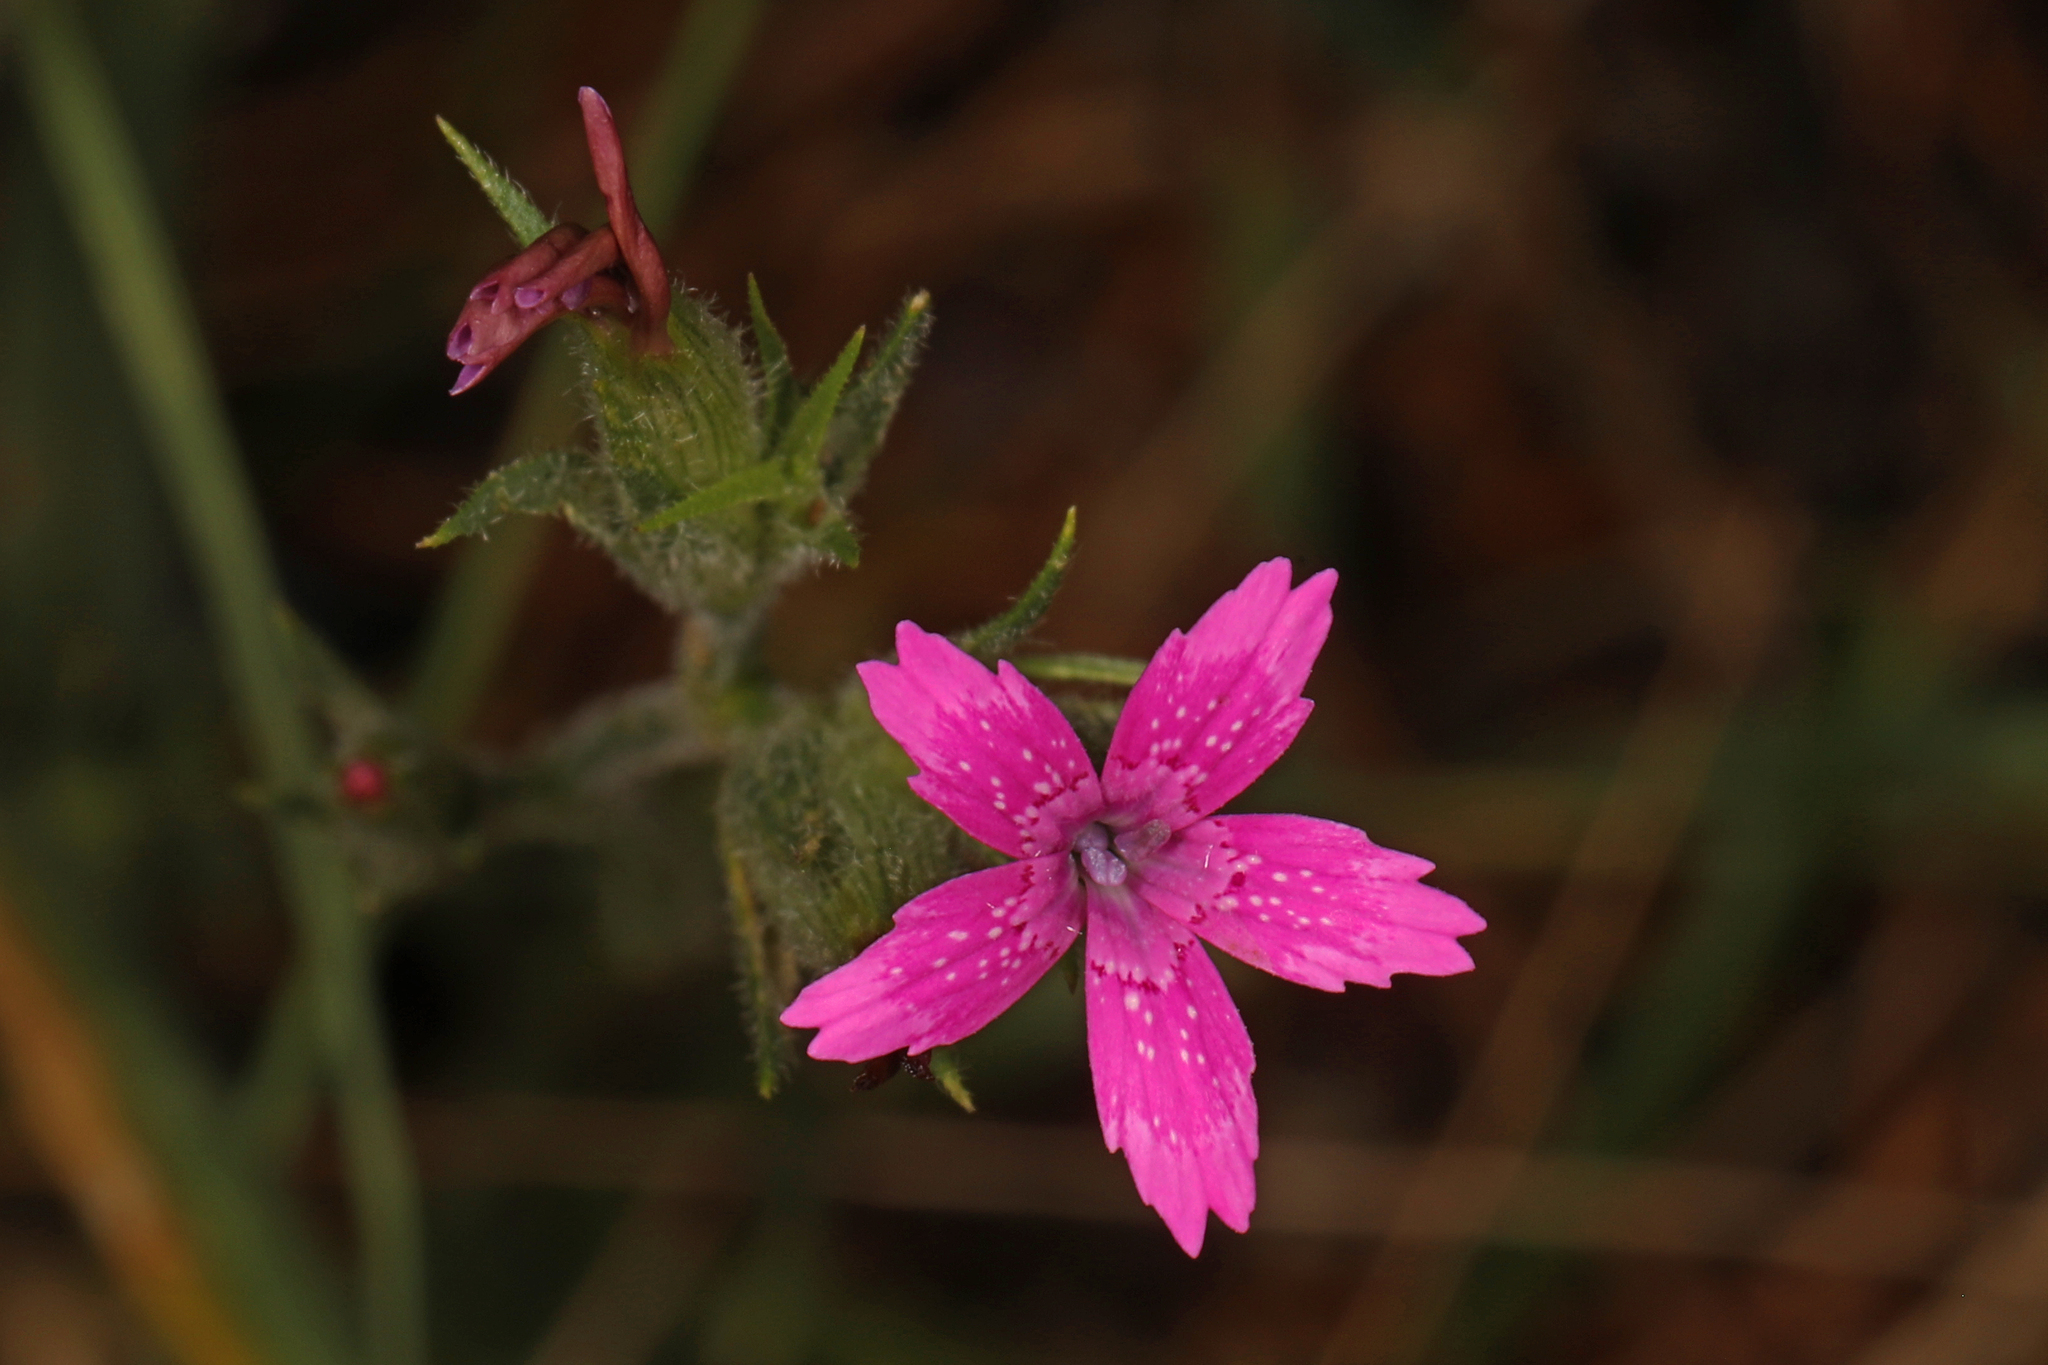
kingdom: Plantae
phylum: Tracheophyta
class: Magnoliopsida
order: Caryophyllales
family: Caryophyllaceae
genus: Dianthus
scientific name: Dianthus armeria
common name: Deptford pink
